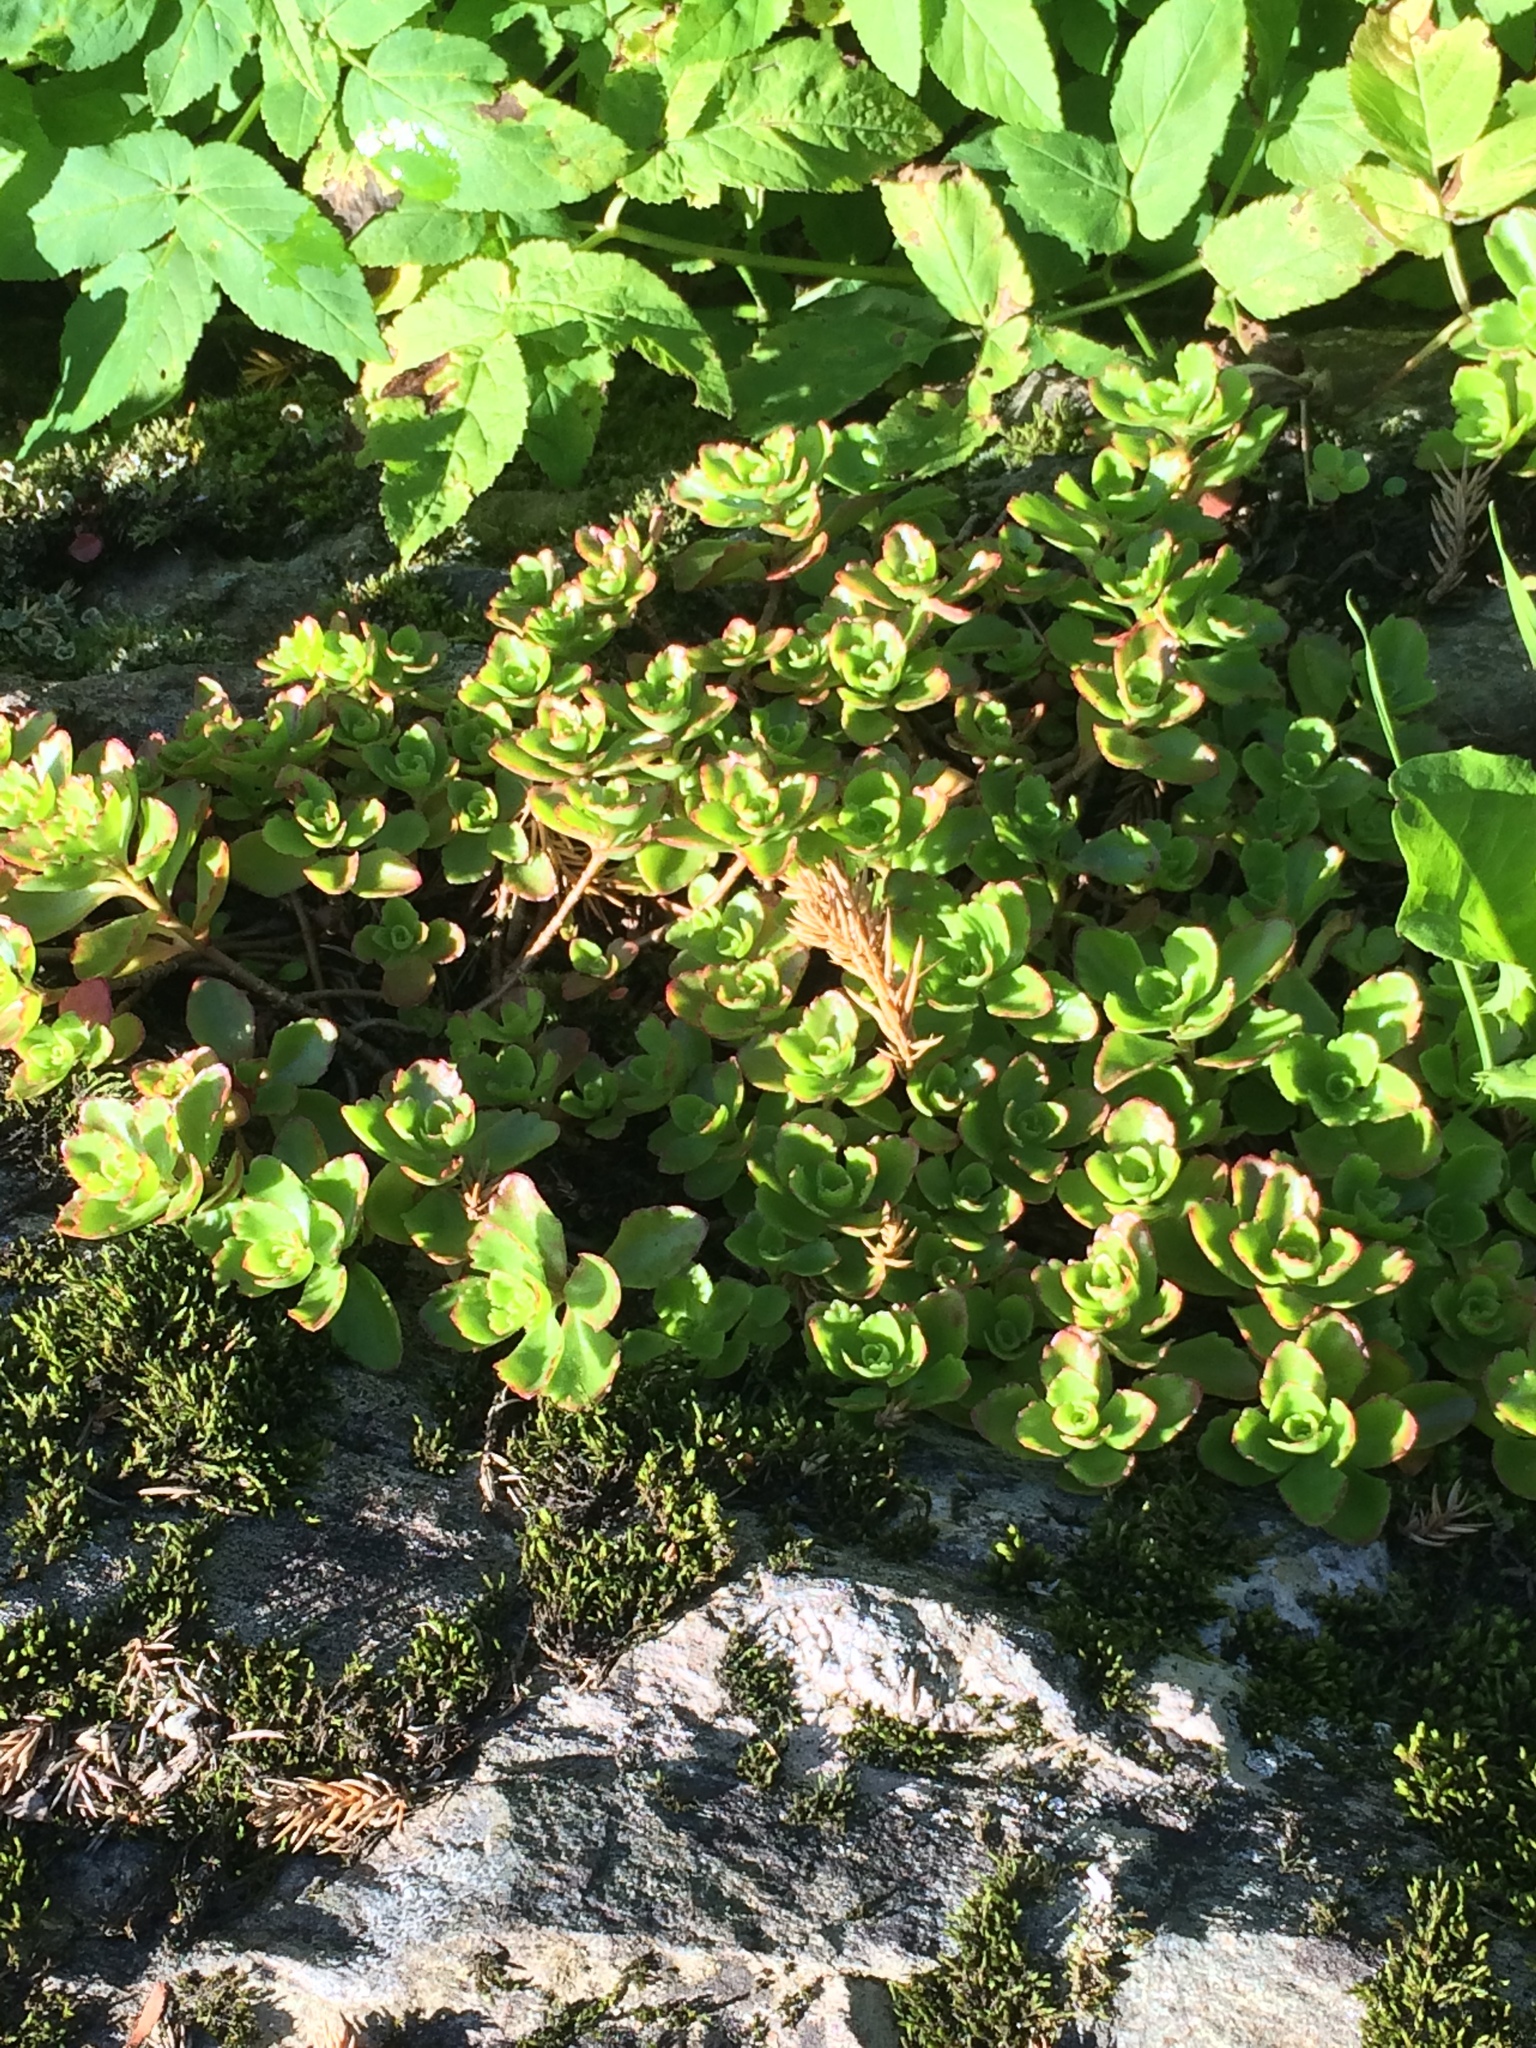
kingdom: Plantae
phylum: Tracheophyta
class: Magnoliopsida
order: Saxifragales
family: Crassulaceae
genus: Phedimus
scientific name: Phedimus spurius
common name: Caucasian stonecrop
